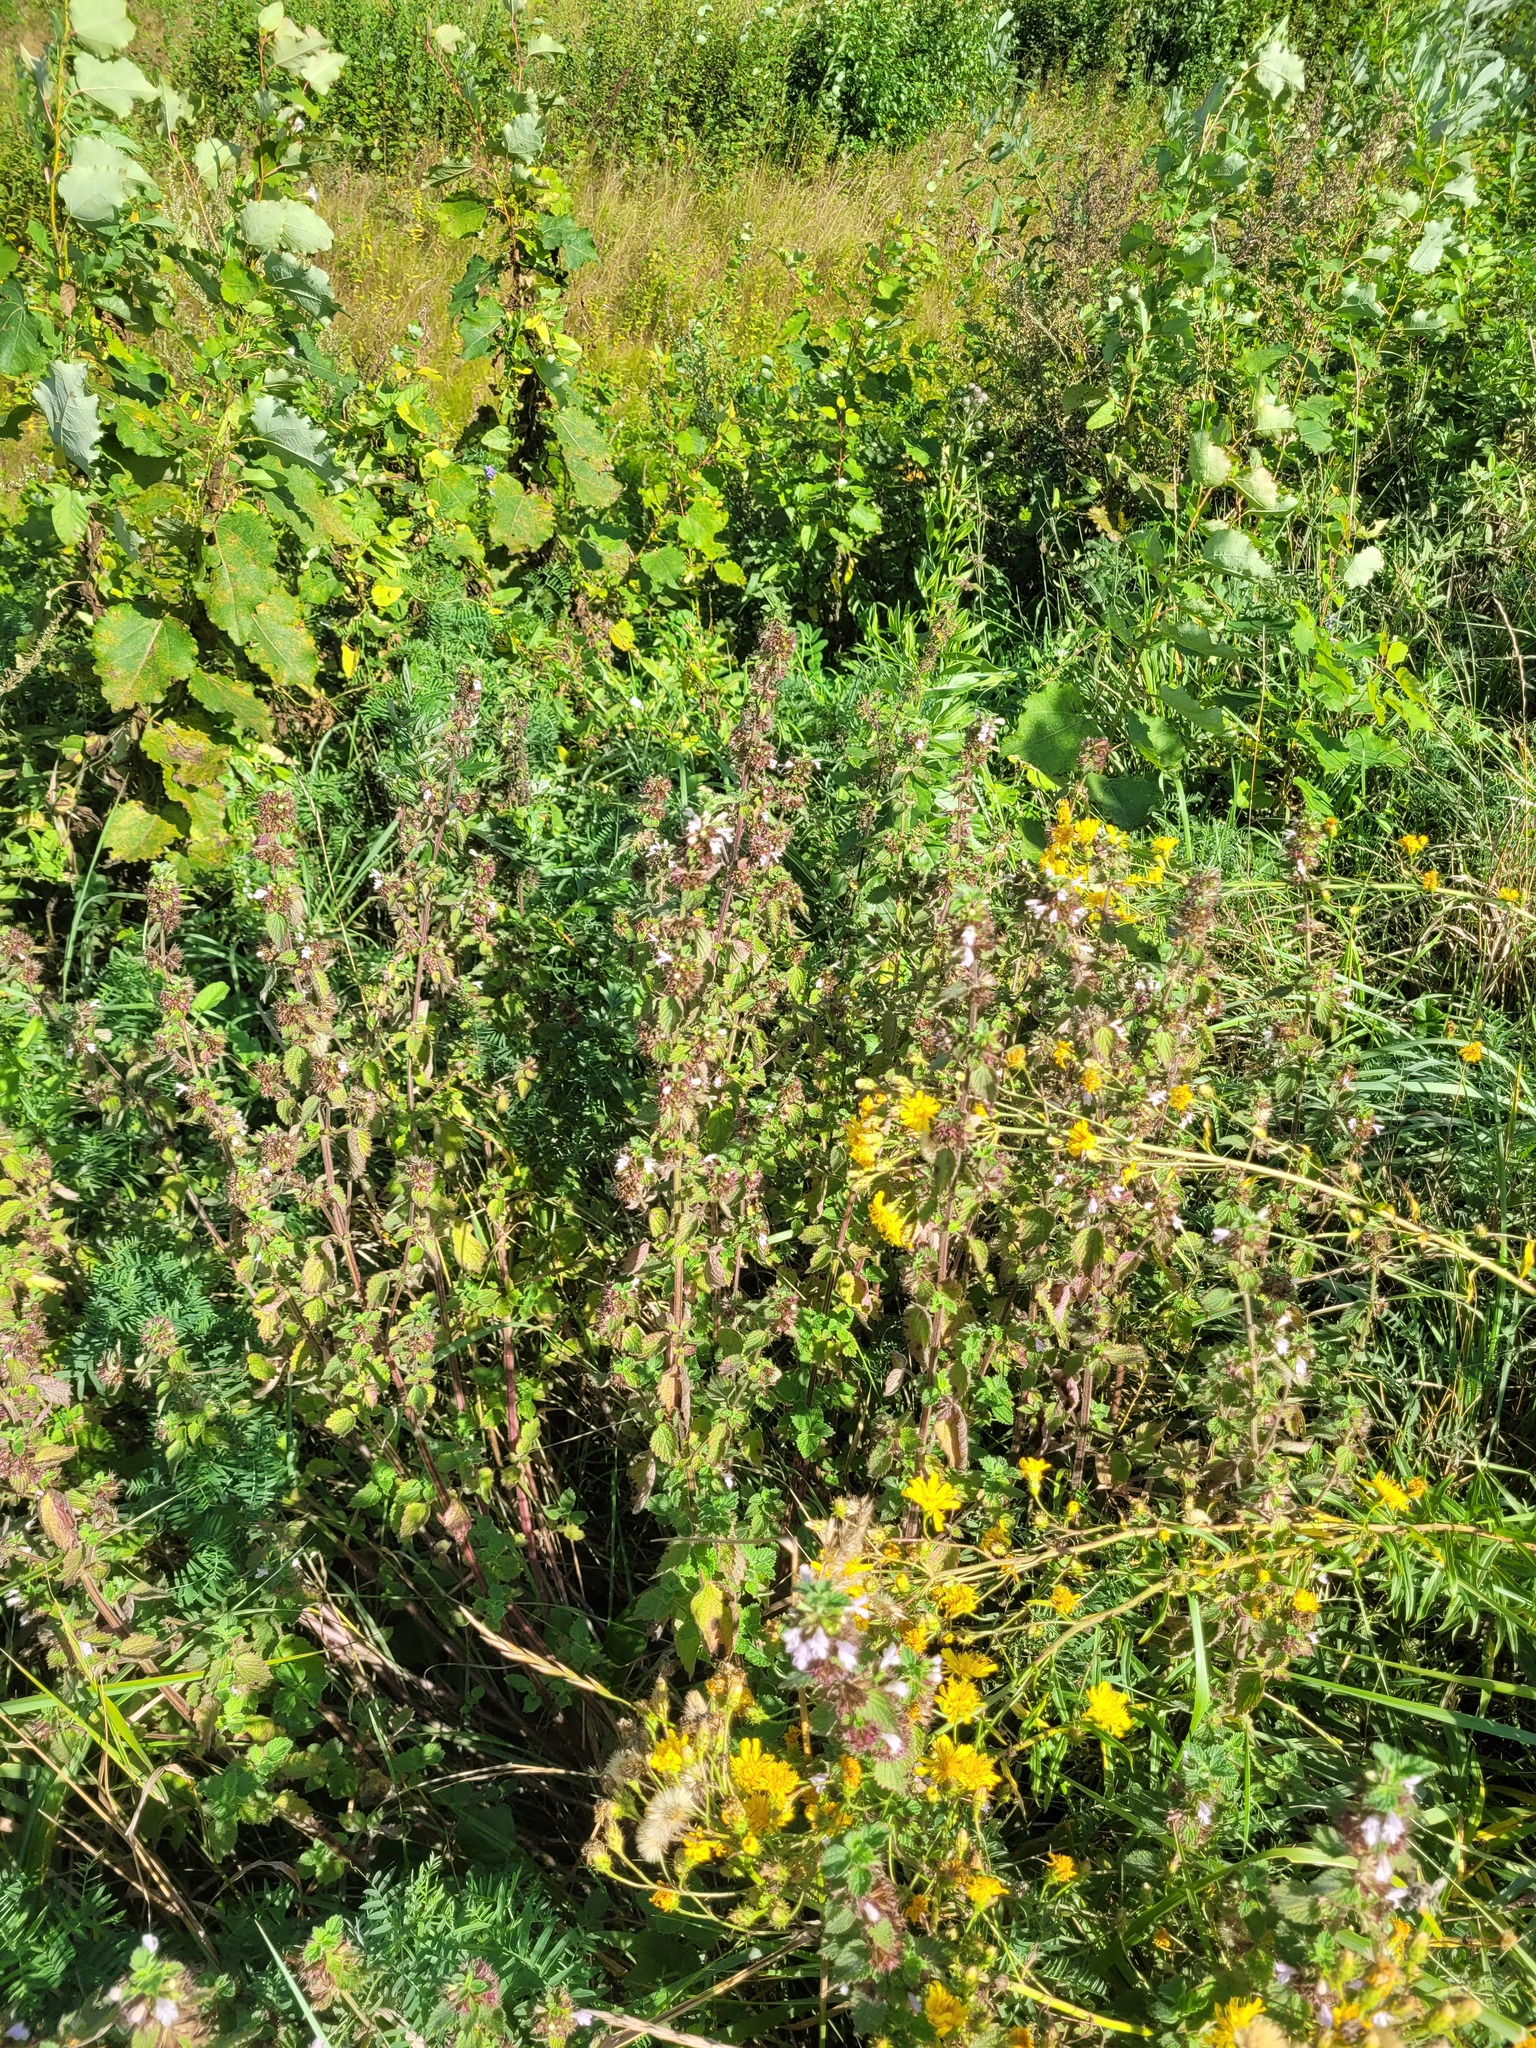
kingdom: Plantae
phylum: Tracheophyta
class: Magnoliopsida
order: Lamiales
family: Lamiaceae
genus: Ballota
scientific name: Ballota nigra
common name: Black horehound
